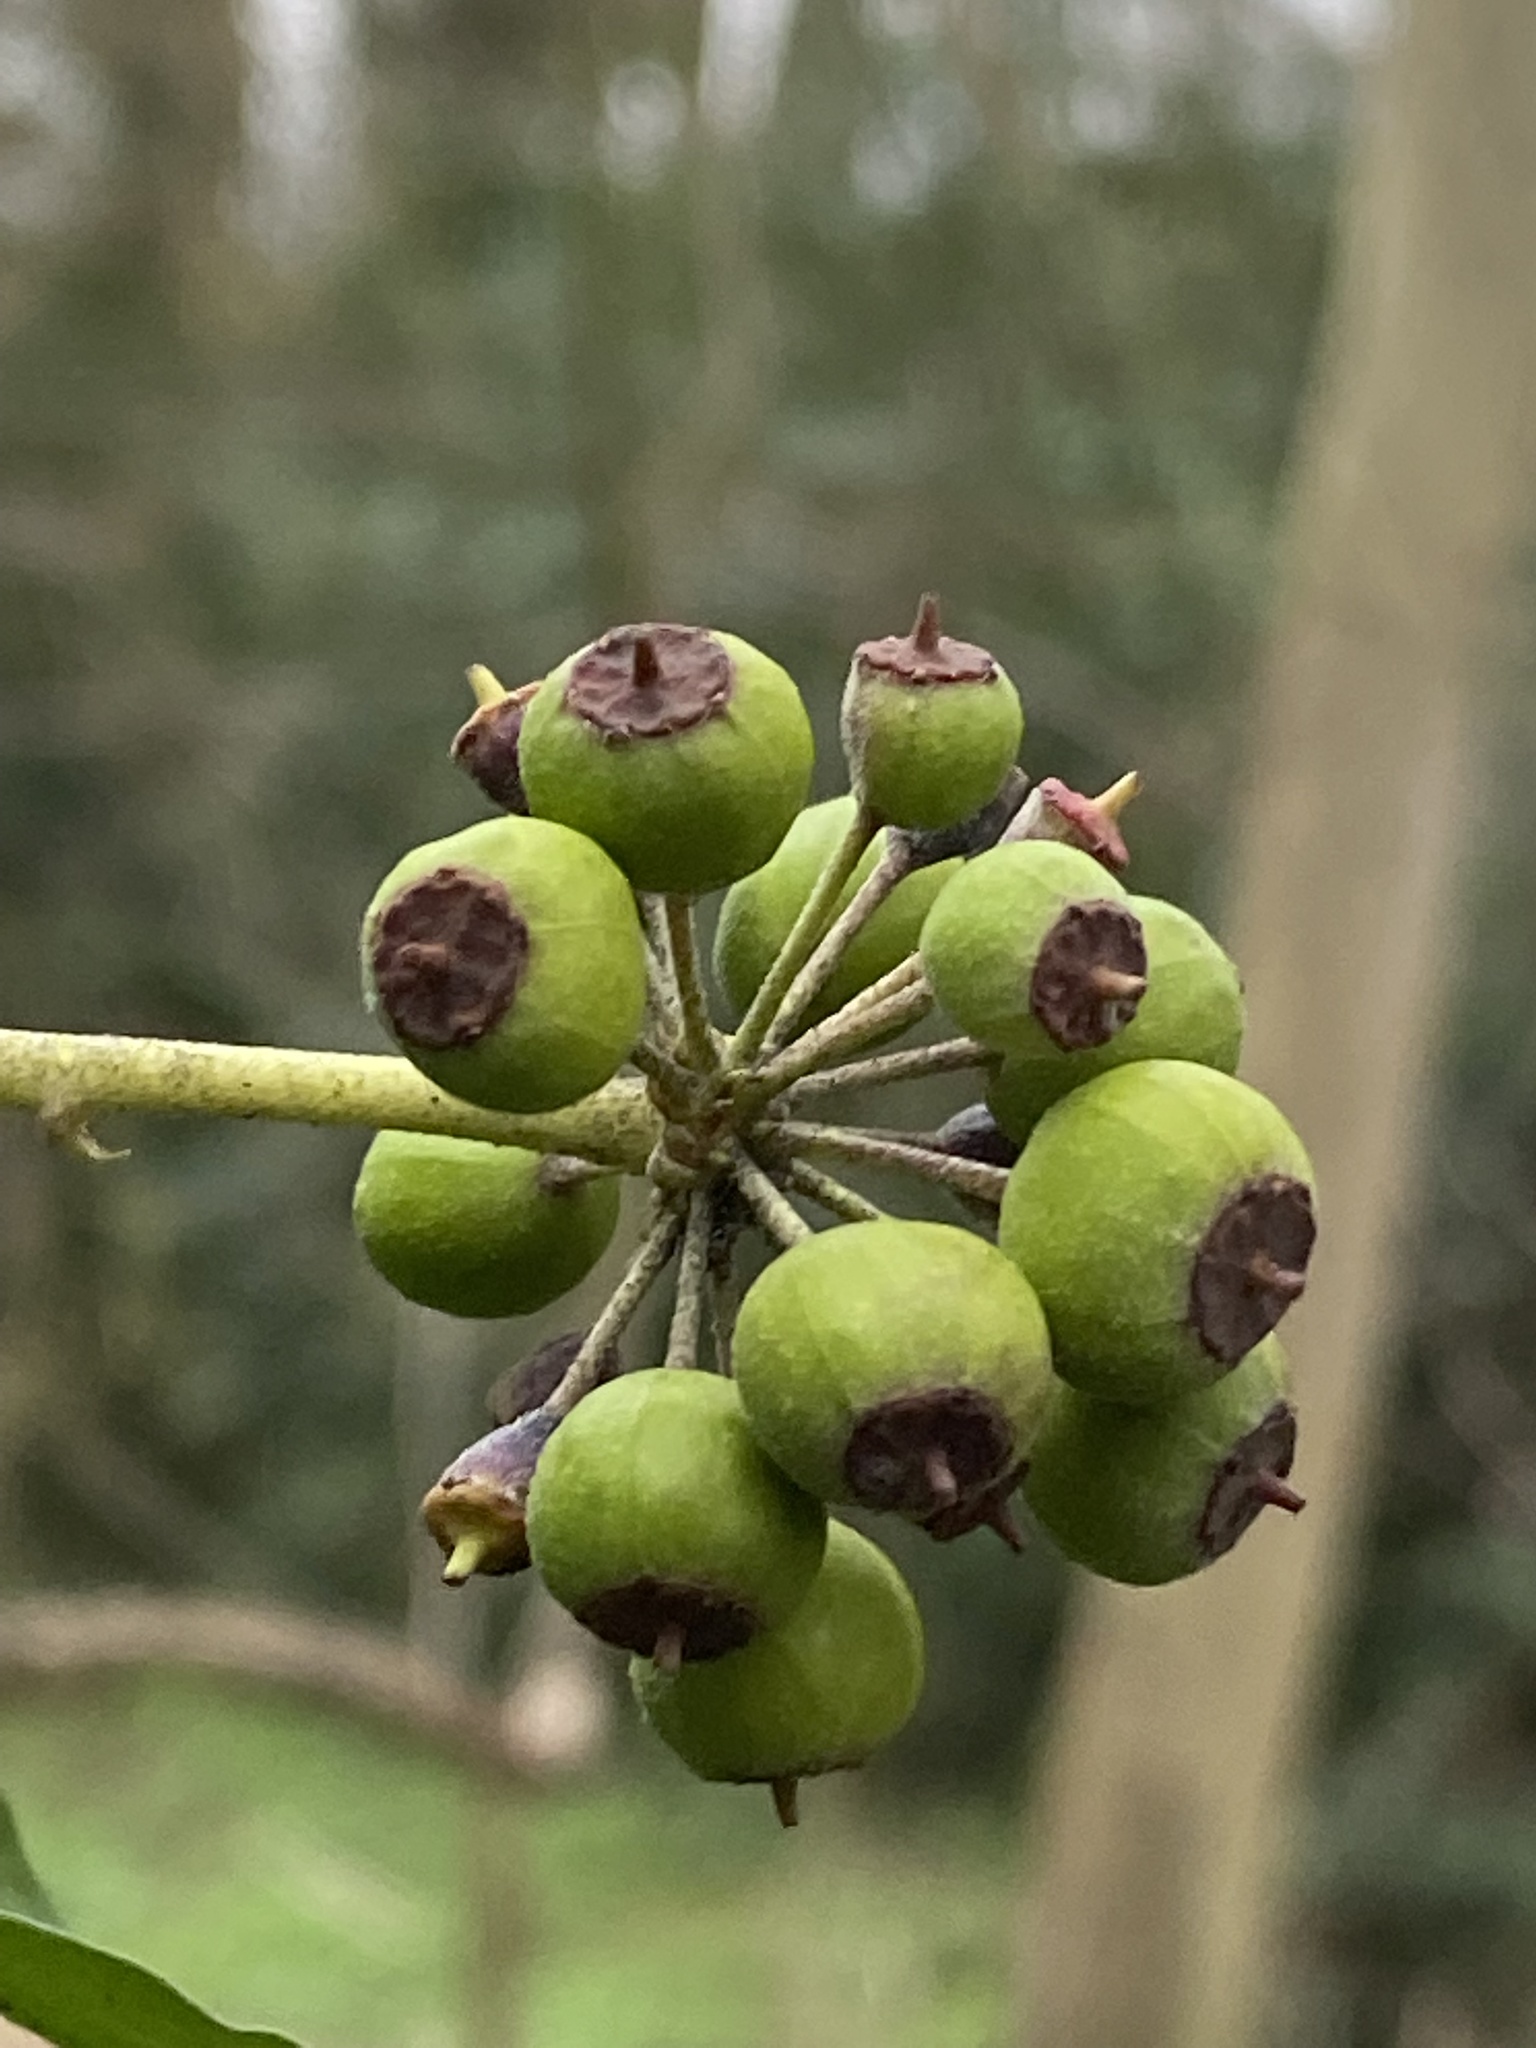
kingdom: Plantae
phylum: Tracheophyta
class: Magnoliopsida
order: Apiales
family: Araliaceae
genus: Hedera
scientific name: Hedera helix
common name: Ivy
